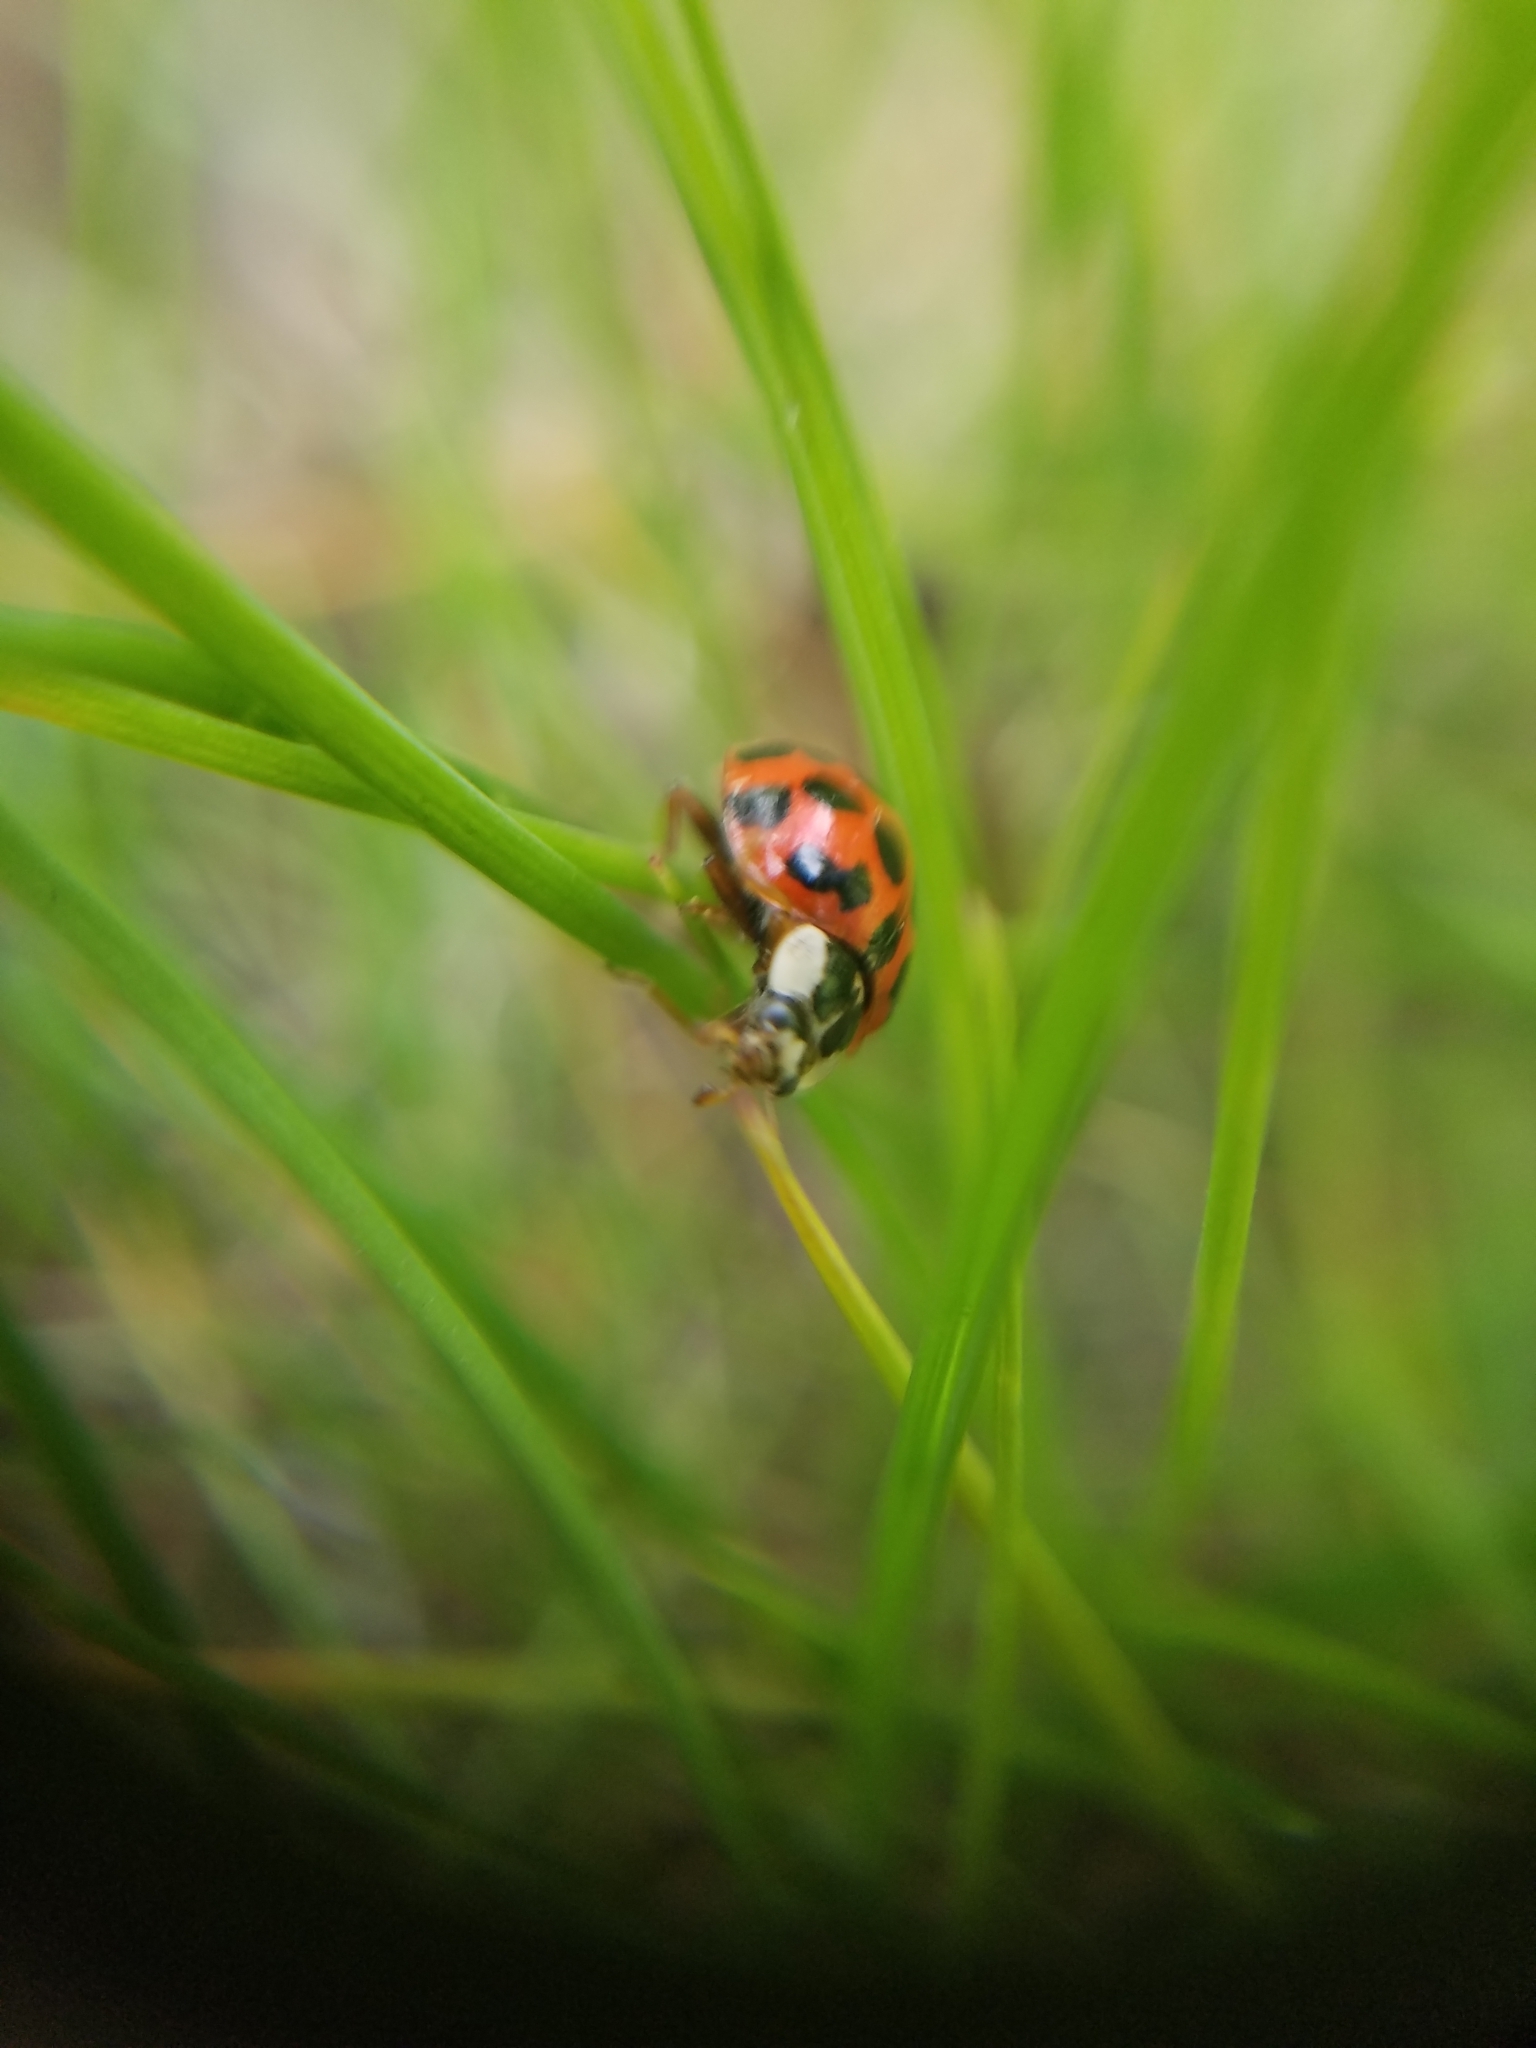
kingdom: Animalia
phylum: Arthropoda
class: Insecta
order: Coleoptera
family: Coccinellidae
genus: Harmonia
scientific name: Harmonia axyridis
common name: Harlequin ladybird
